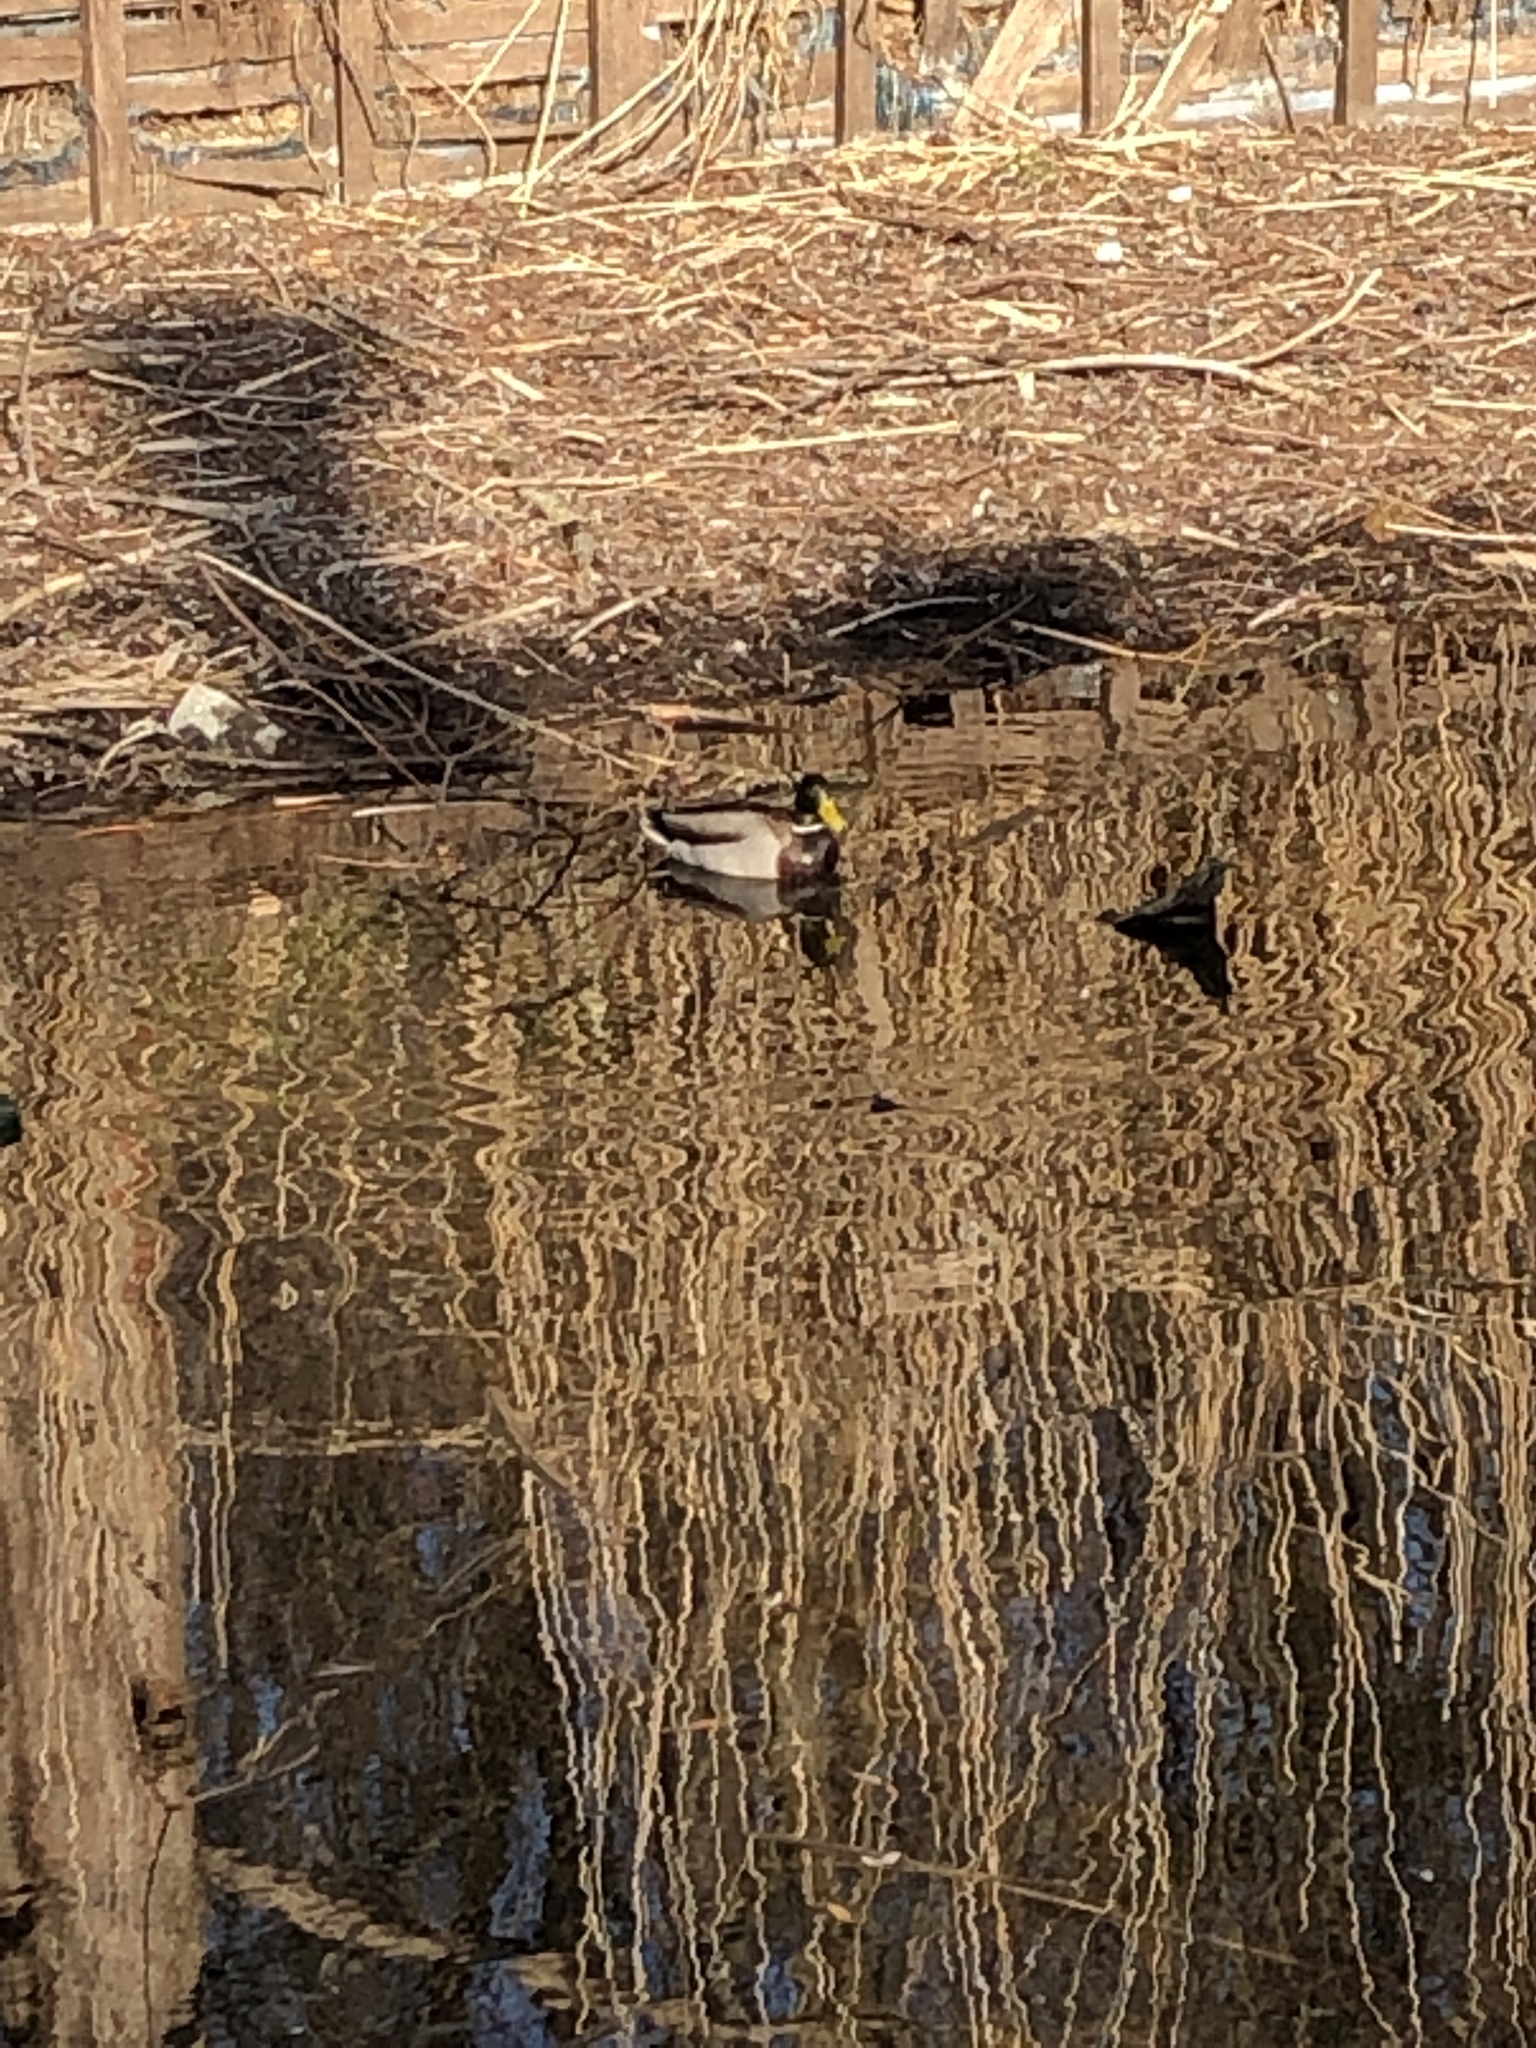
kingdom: Animalia
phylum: Chordata
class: Aves
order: Anseriformes
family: Anatidae
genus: Anas
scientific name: Anas platyrhynchos
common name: Mallard
